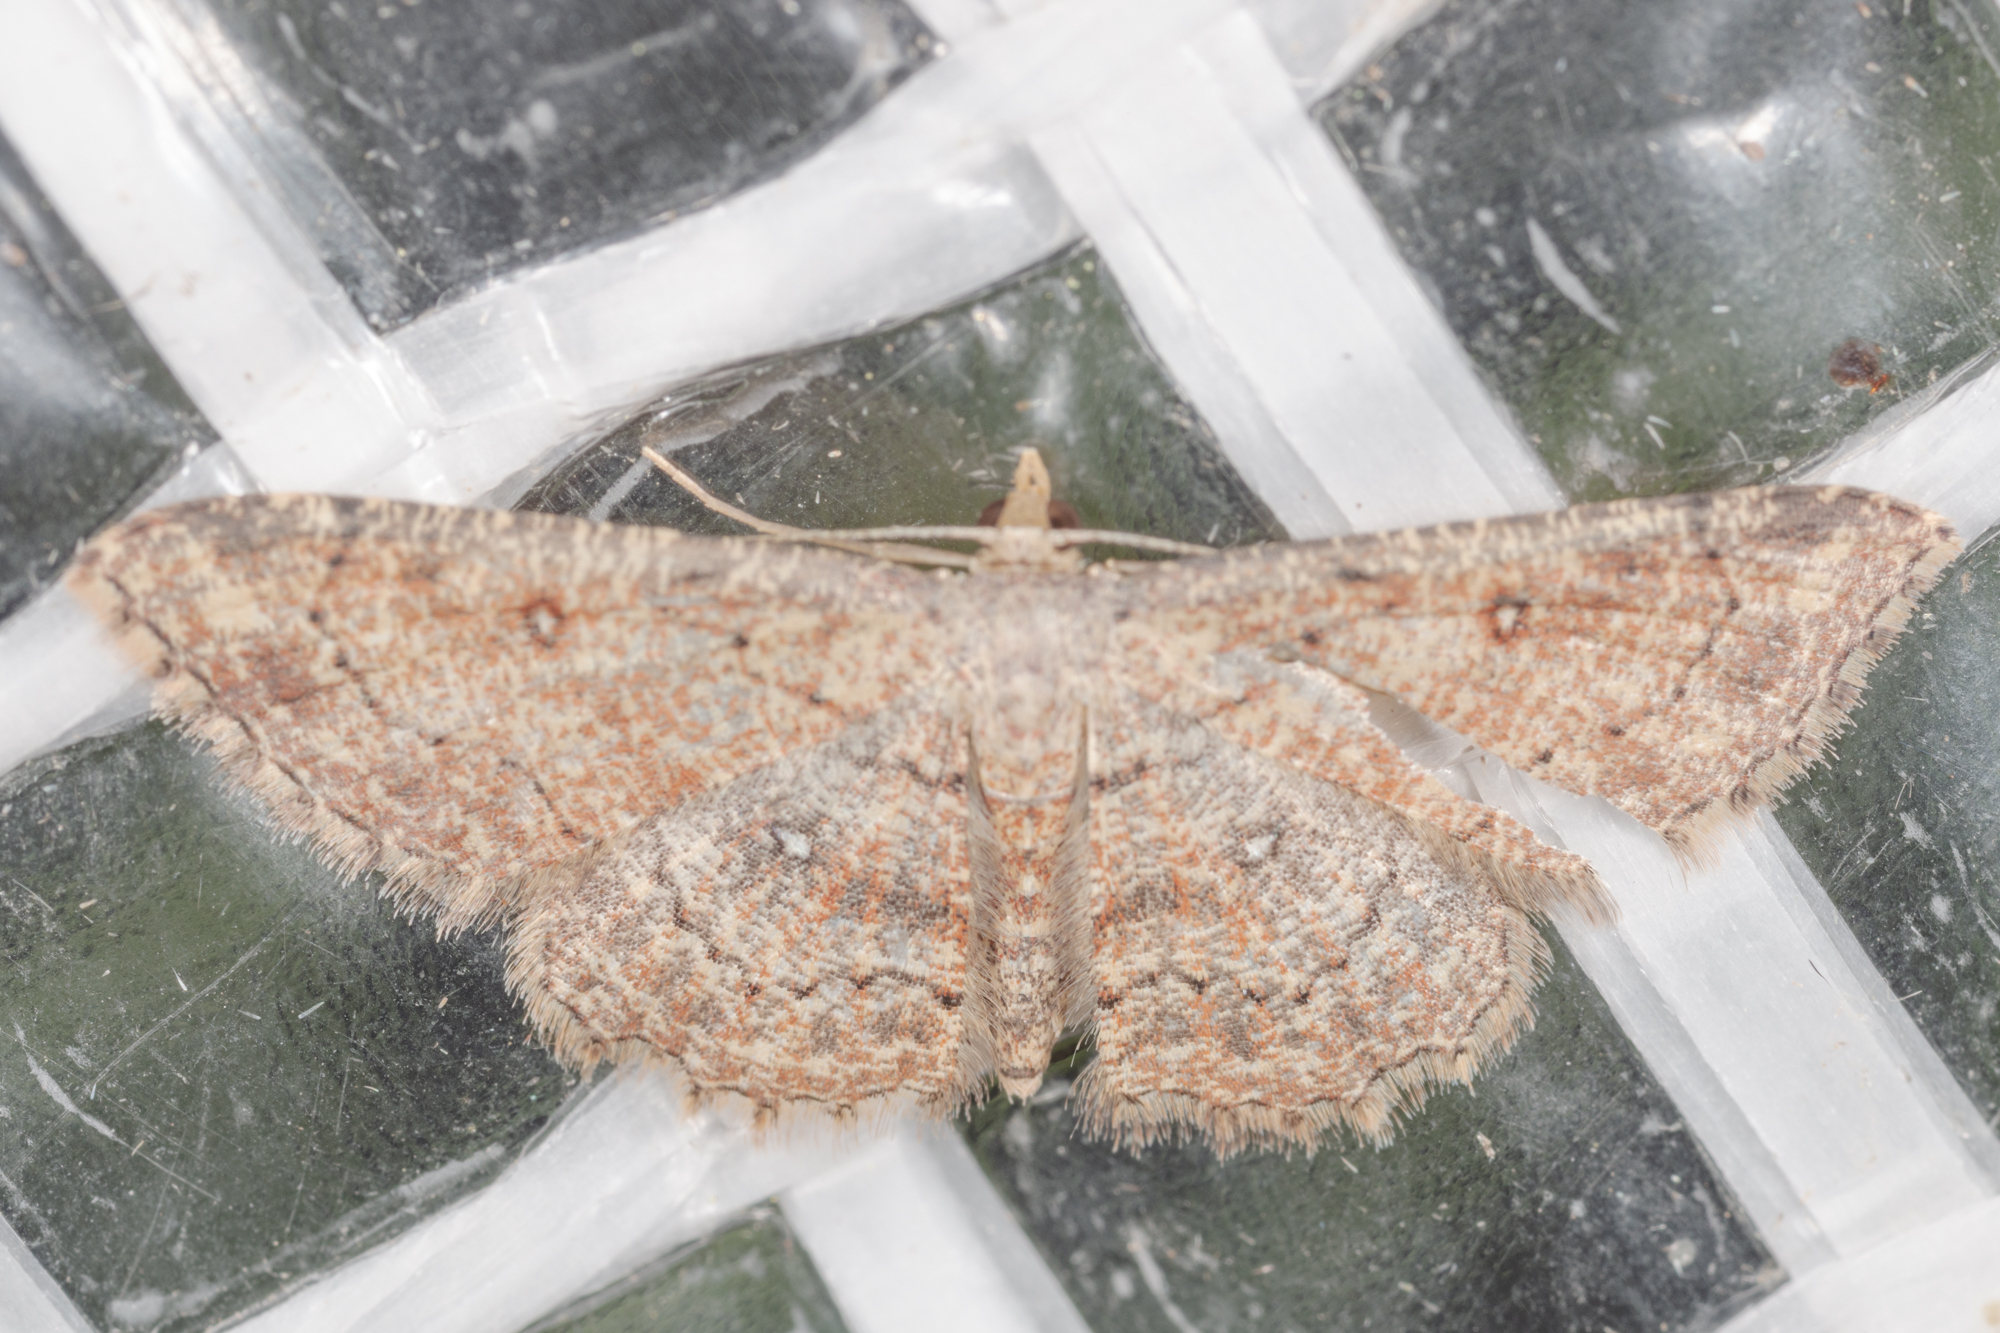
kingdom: Animalia
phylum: Arthropoda
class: Insecta
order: Lepidoptera
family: Geometridae
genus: Cyclophora
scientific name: Cyclophora nanaria
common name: Cankerworm
